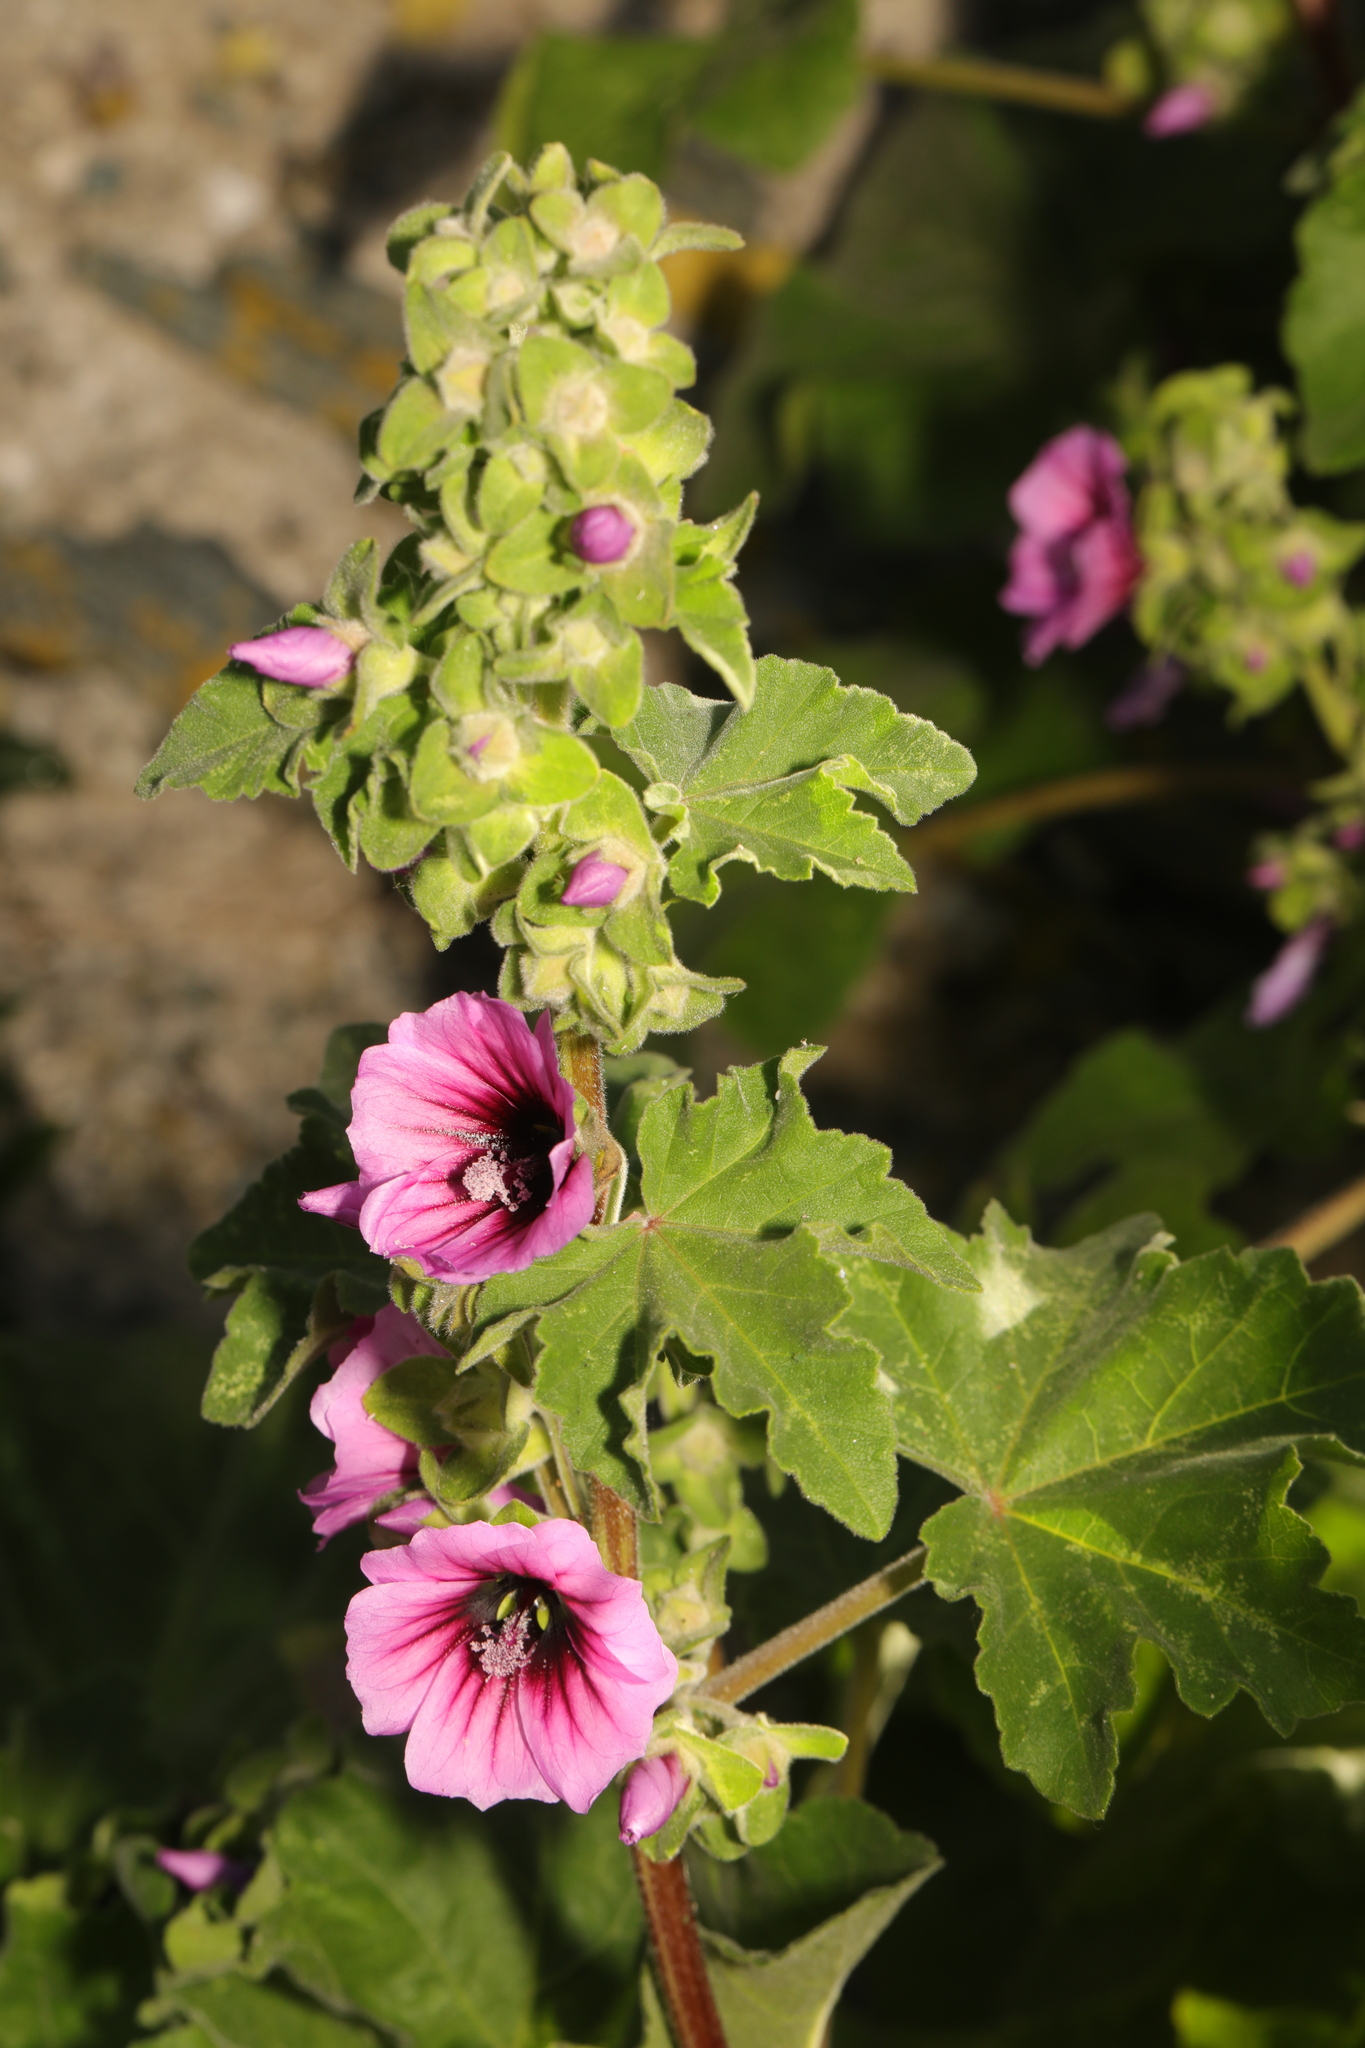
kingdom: Plantae
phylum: Tracheophyta
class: Magnoliopsida
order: Malvales
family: Malvaceae
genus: Malva
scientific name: Malva arborea
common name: Tree mallow
